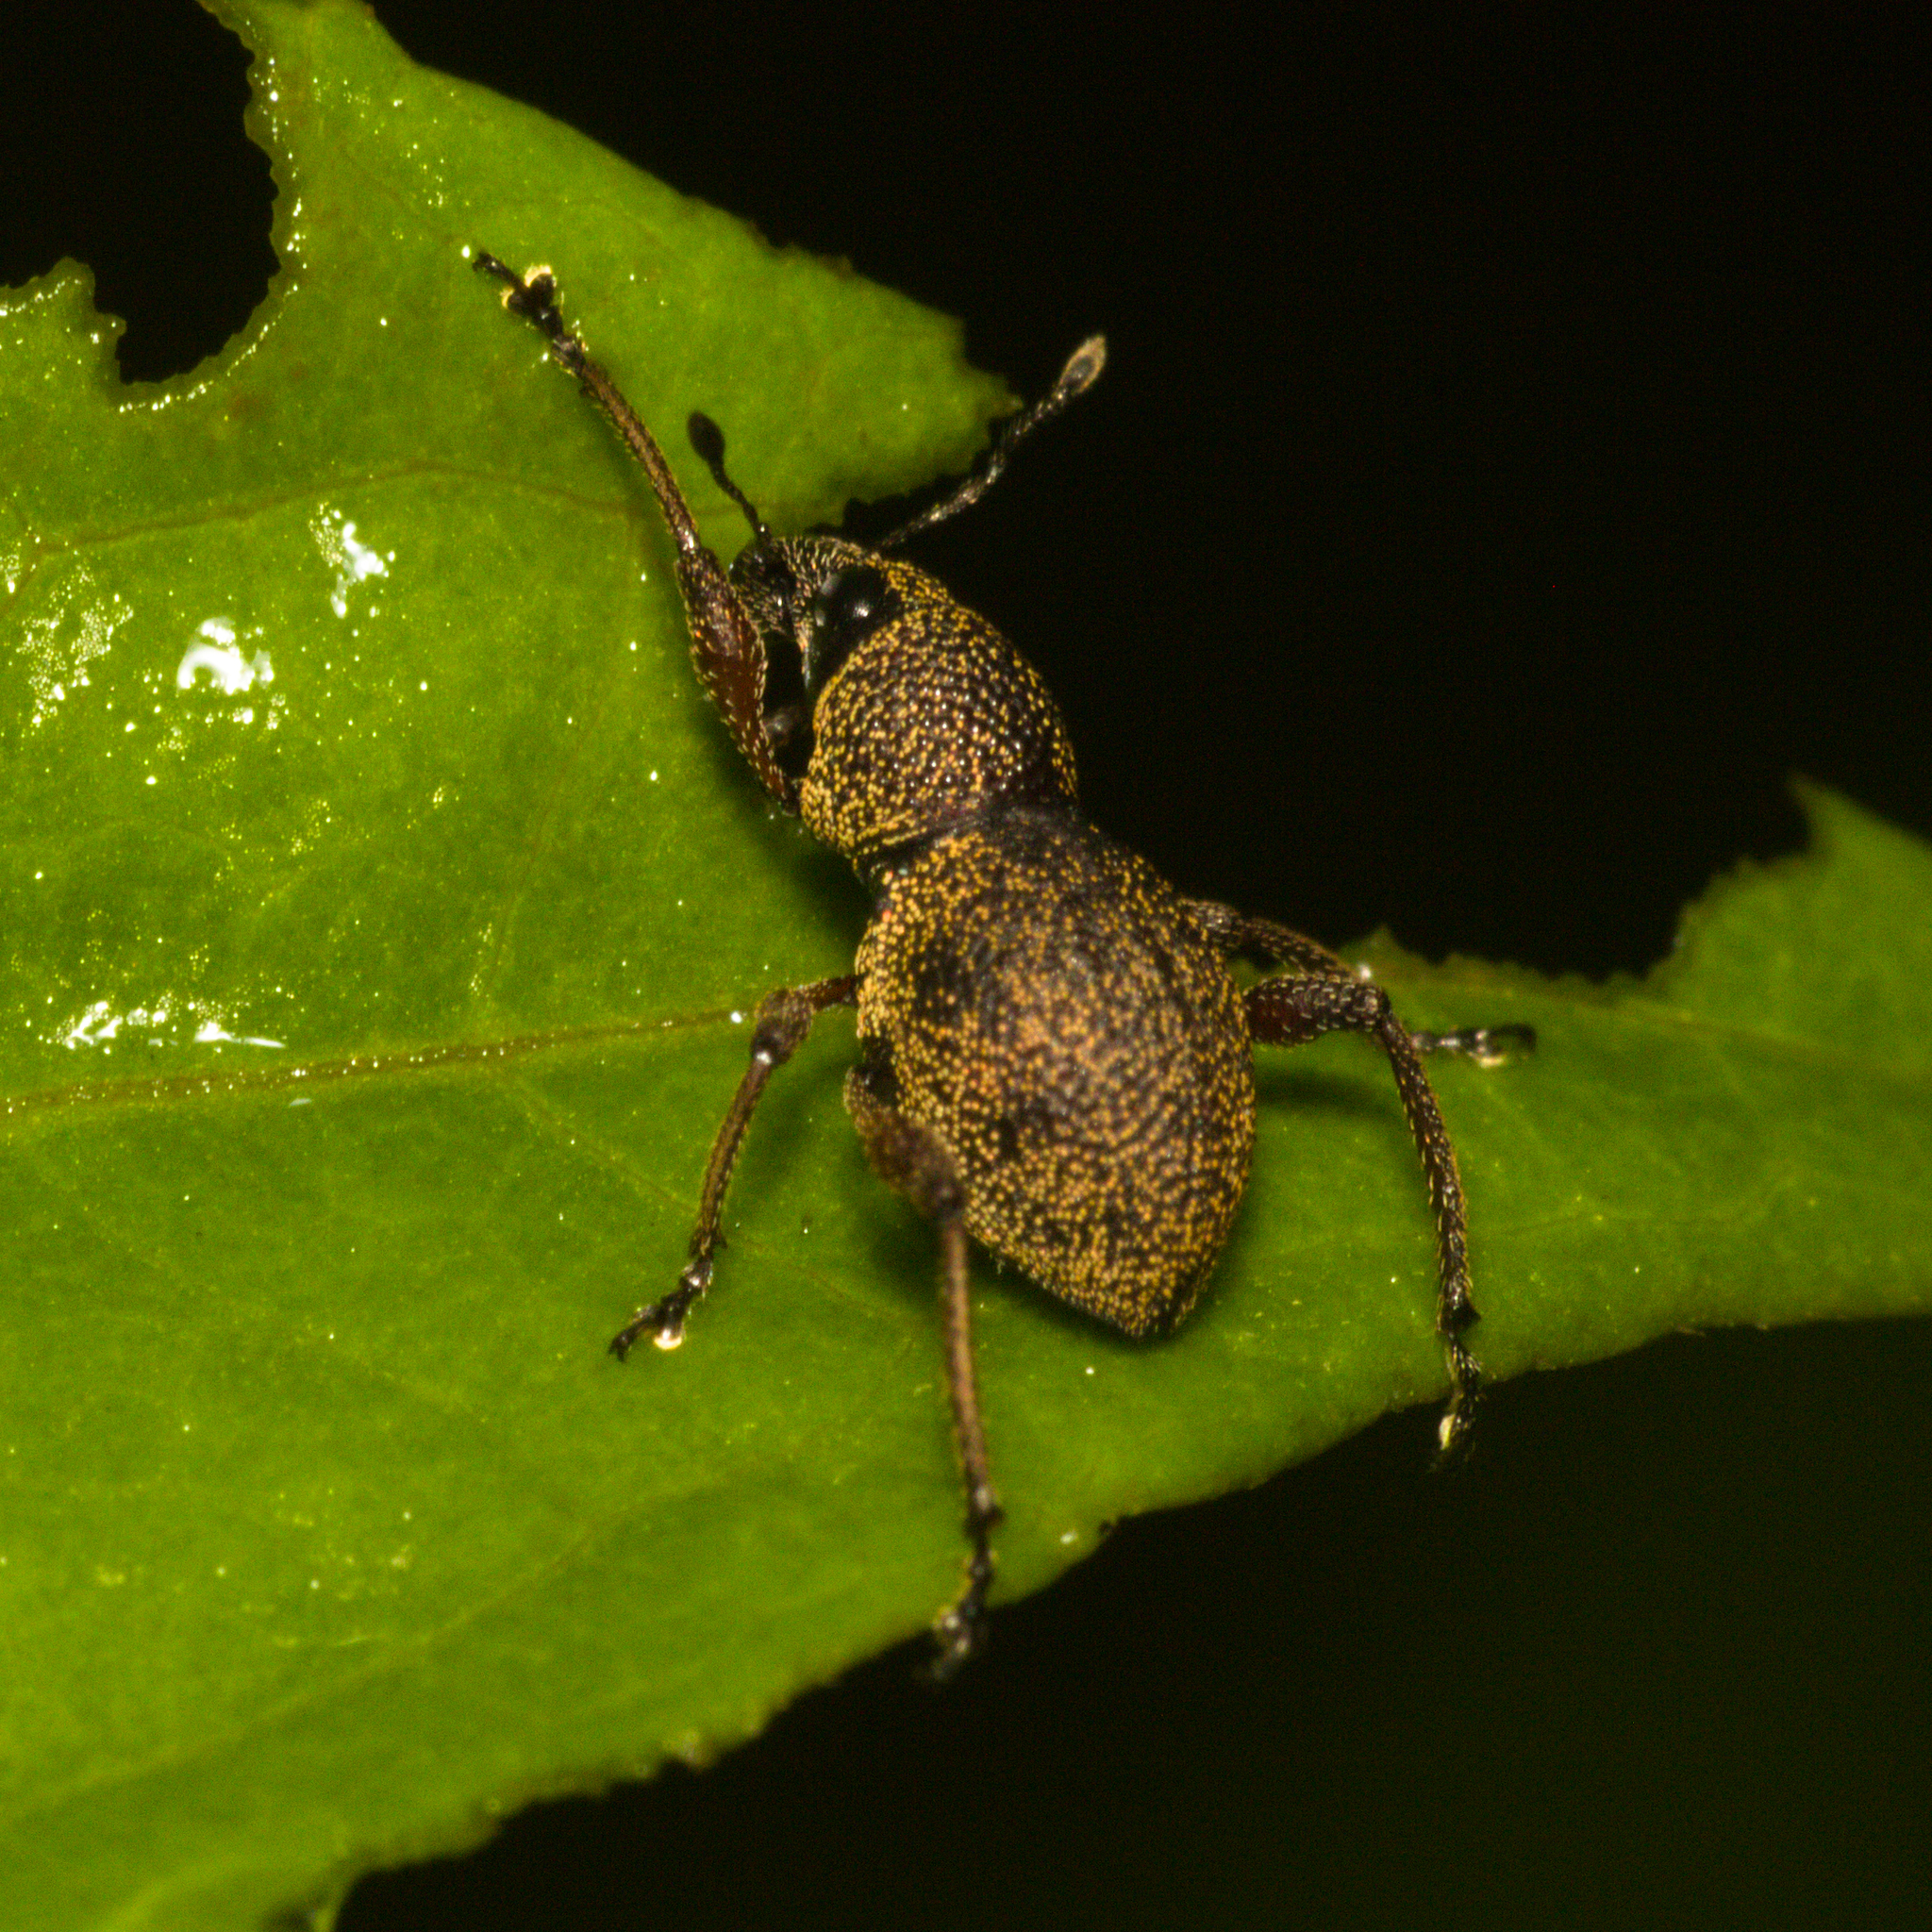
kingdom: Animalia
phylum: Arthropoda
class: Insecta
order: Coleoptera
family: Curculionidae
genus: Metapocyrtus
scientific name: Metapocyrtus adspersus
